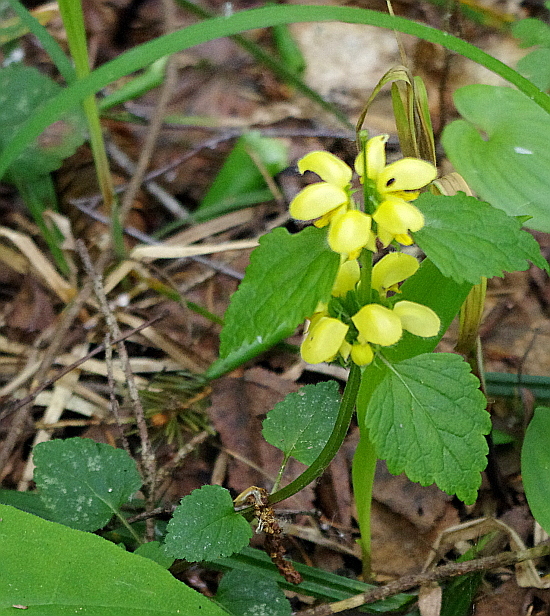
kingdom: Plantae
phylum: Tracheophyta
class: Magnoliopsida
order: Lamiales
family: Lamiaceae
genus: Lamium
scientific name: Lamium galeobdolon
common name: Yellow archangel
